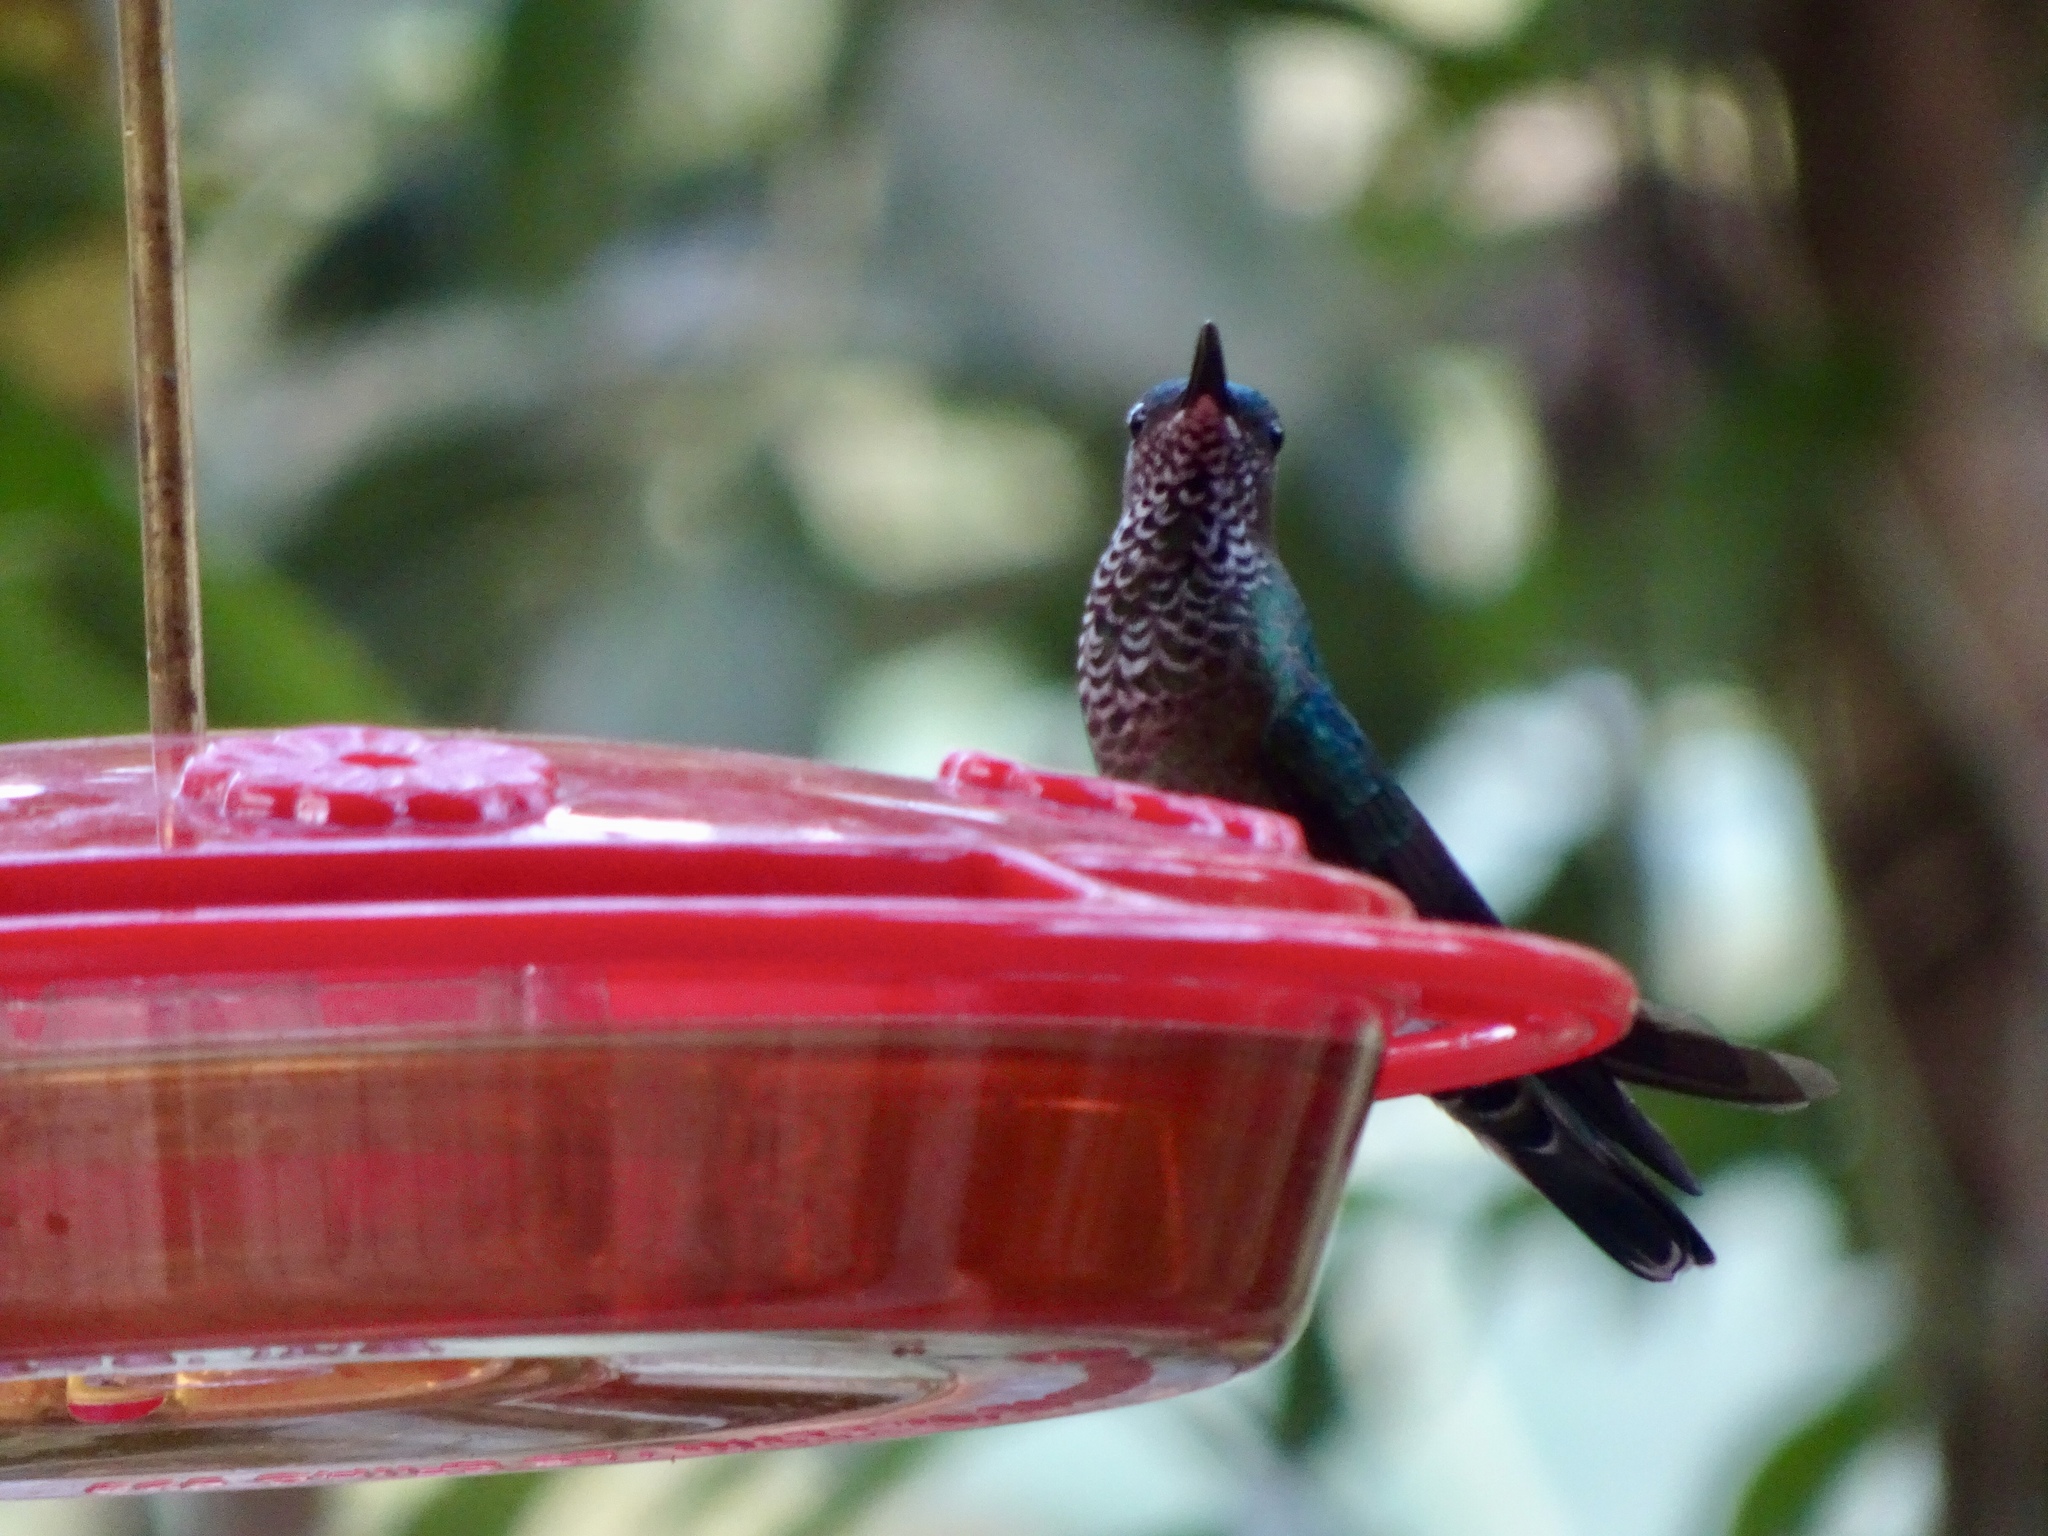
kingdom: Animalia
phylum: Chordata
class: Aves
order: Apodiformes
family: Trochilidae
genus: Florisuga
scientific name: Florisuga mellivora
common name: White-necked jacobin
